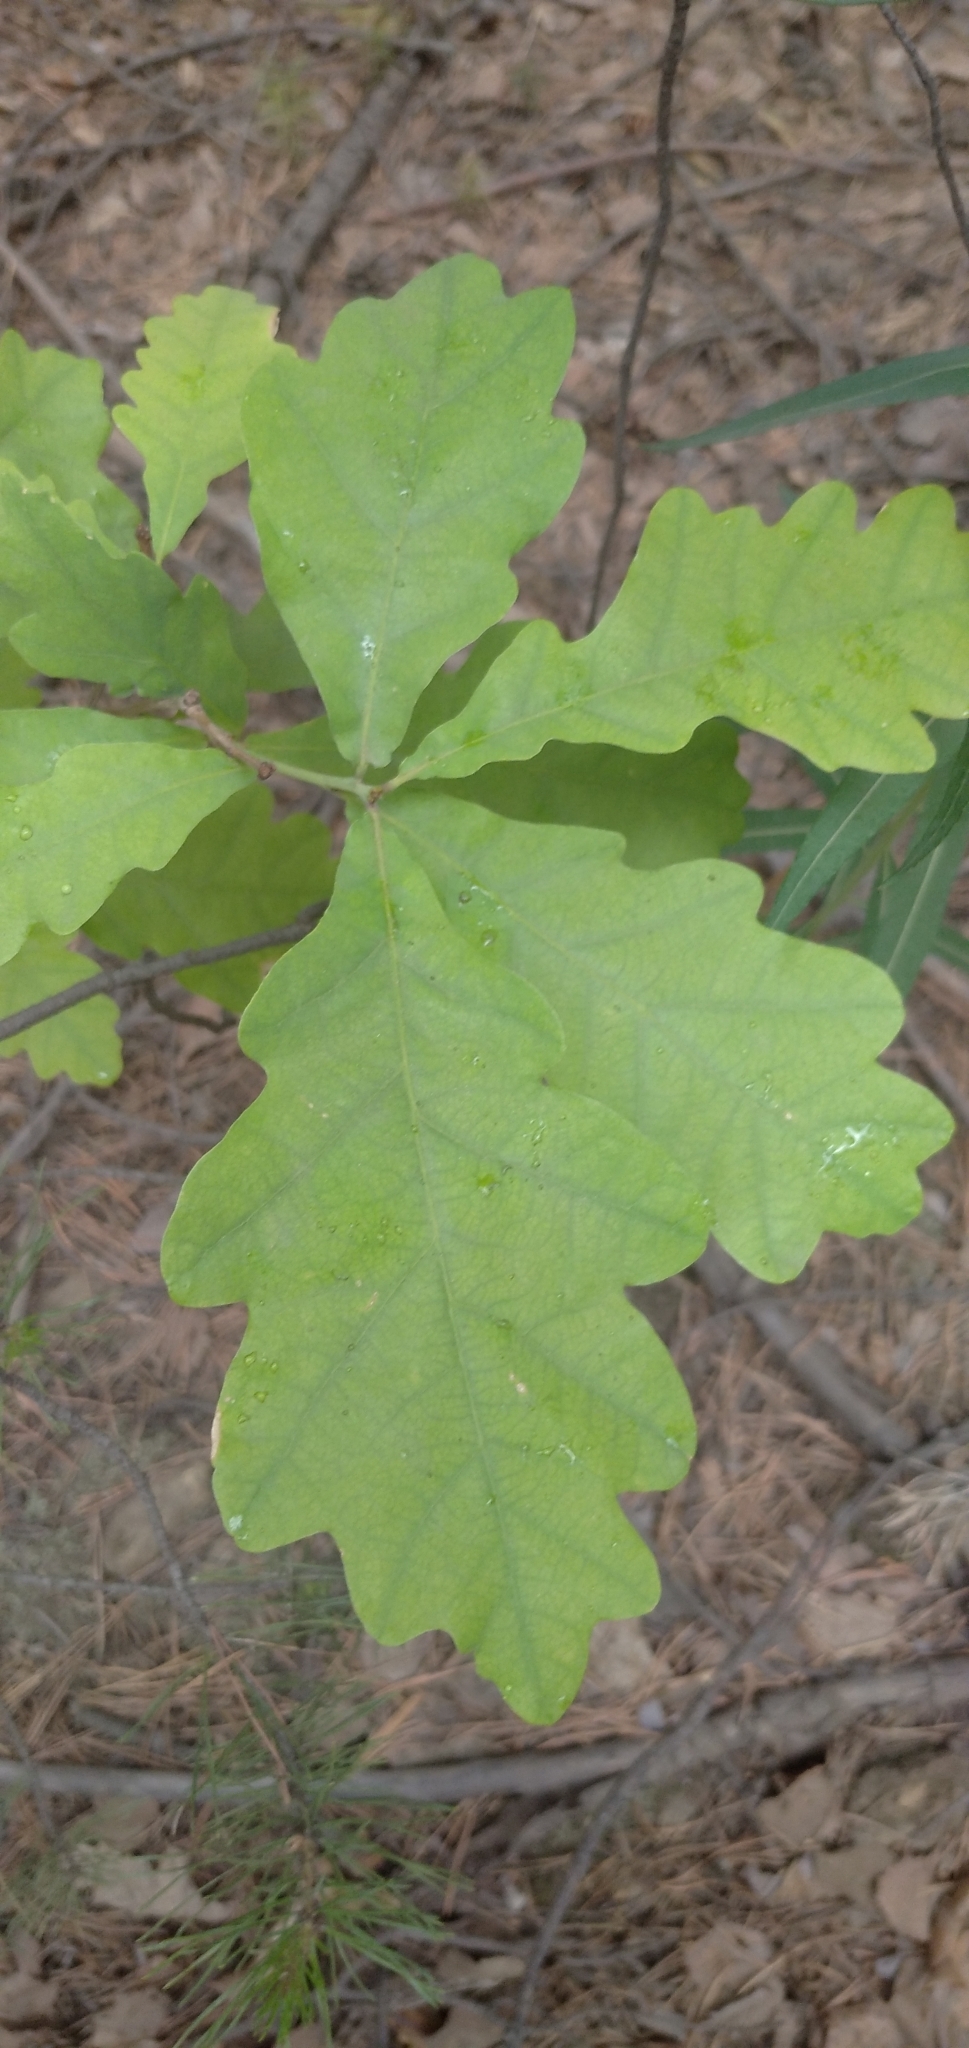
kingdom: Plantae
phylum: Tracheophyta
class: Magnoliopsida
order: Fagales
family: Fagaceae
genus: Quercus
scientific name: Quercus robur
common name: Pedunculate oak
